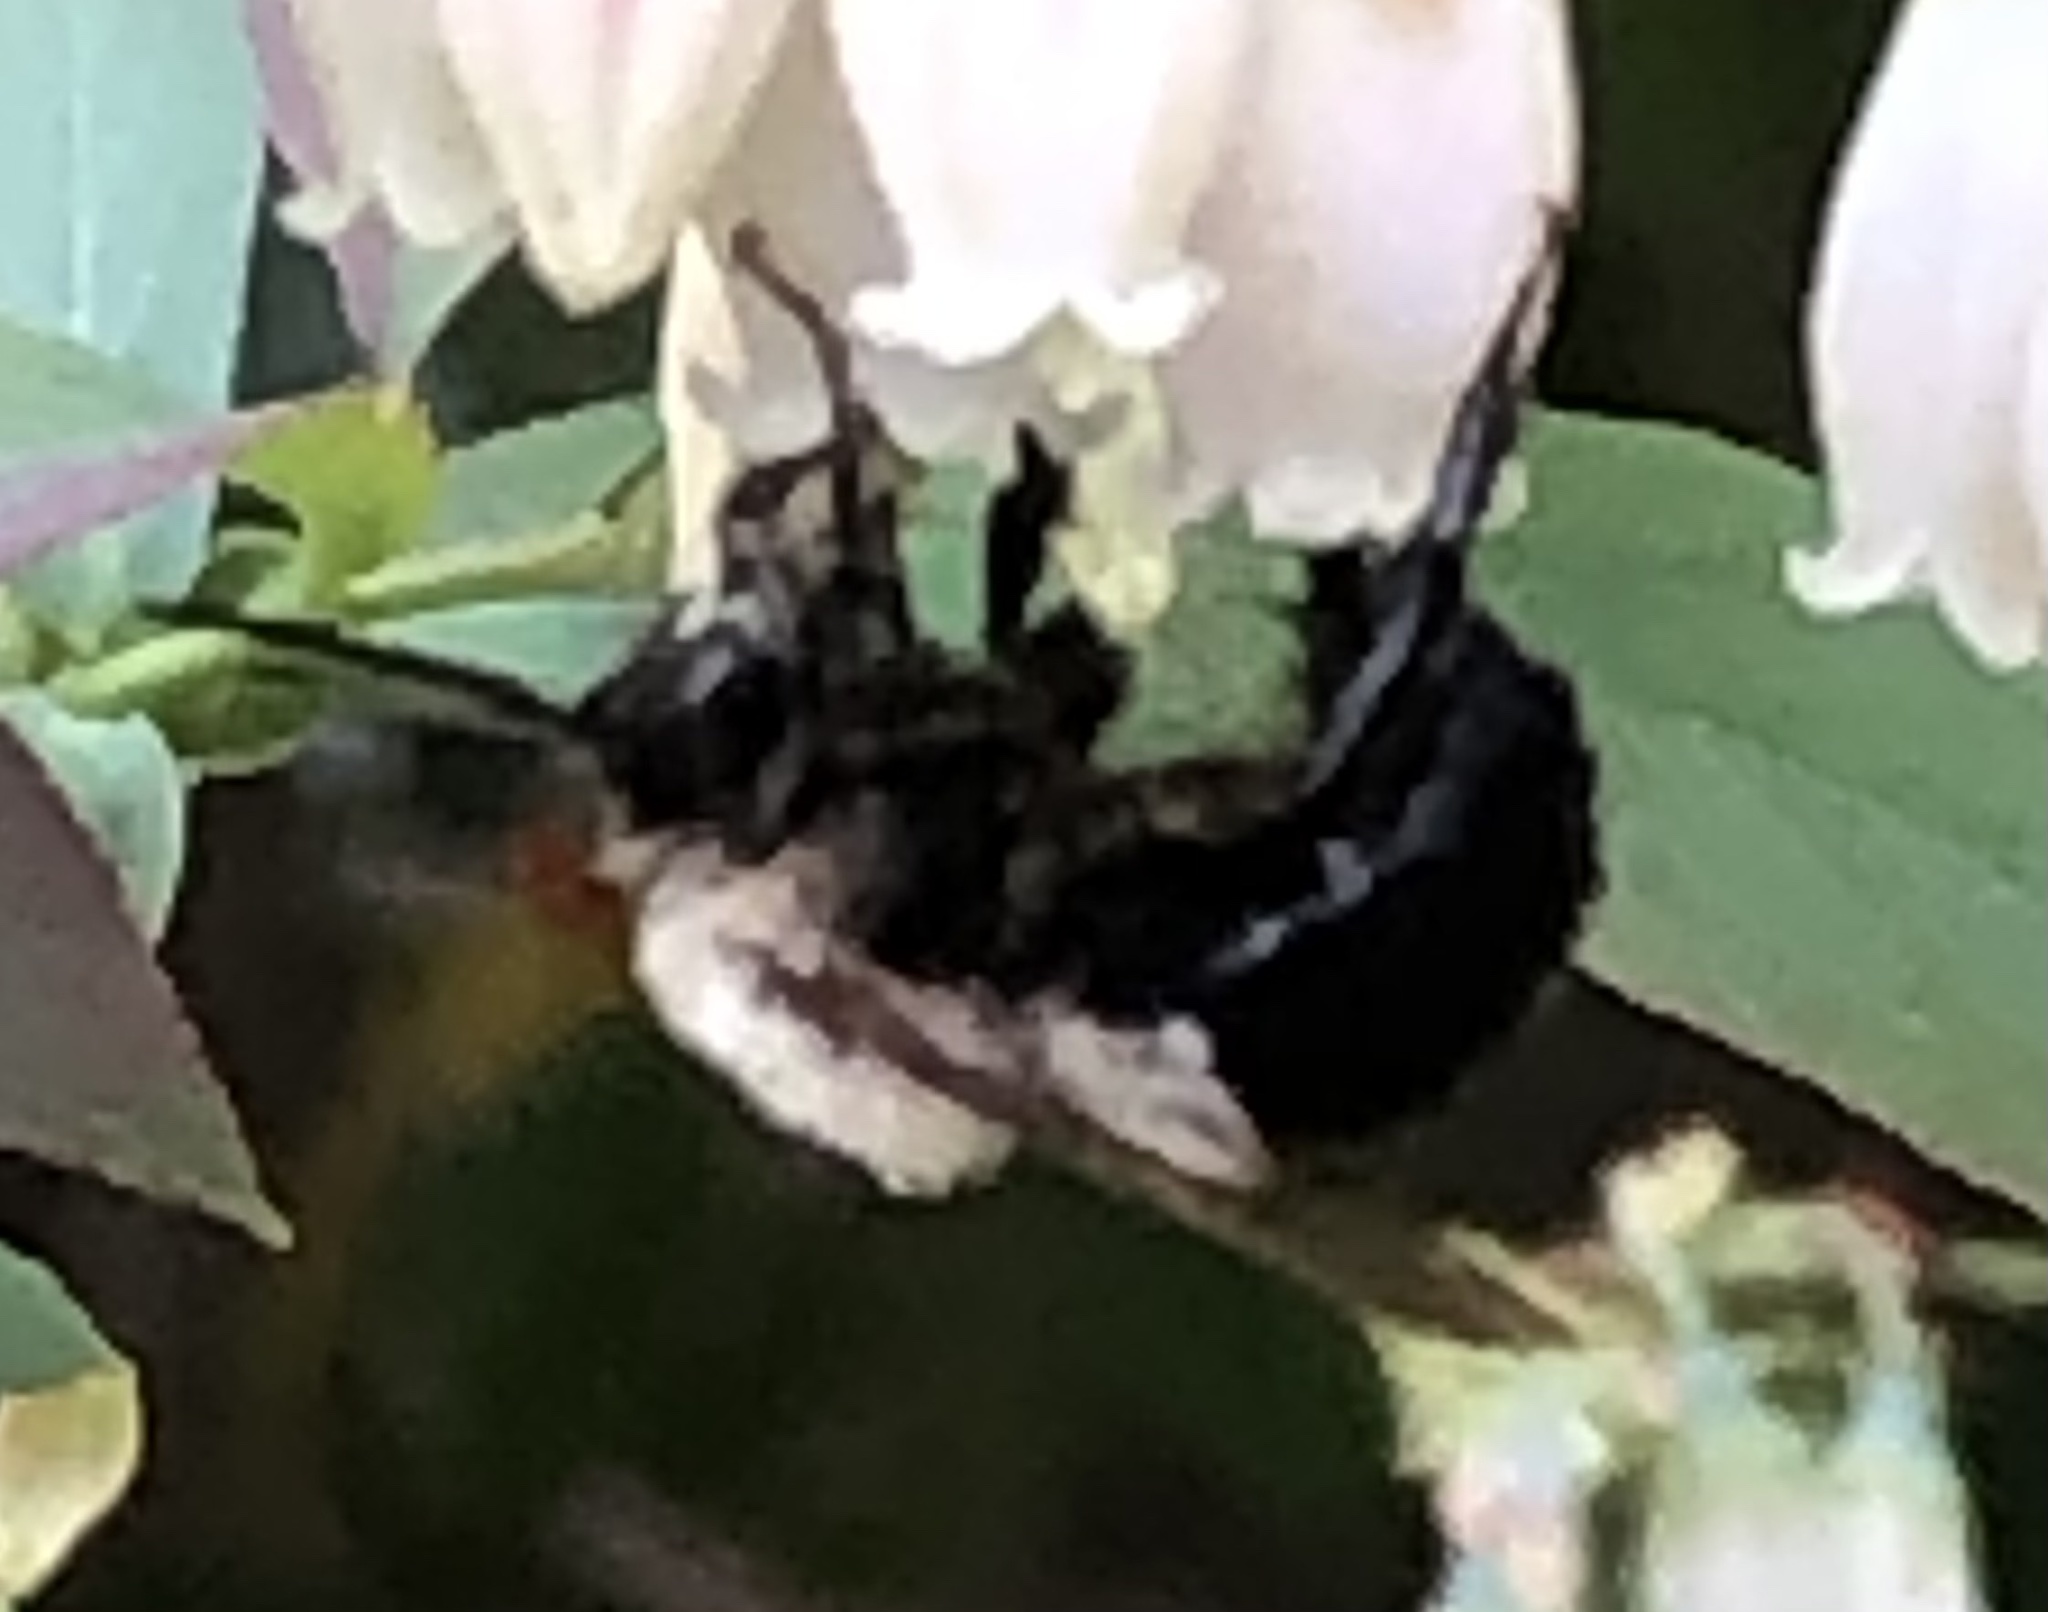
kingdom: Animalia
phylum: Arthropoda
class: Insecta
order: Hymenoptera
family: Apidae
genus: Habropoda
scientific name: Habropoda laboriosa
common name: Southeastern blueberry bee
